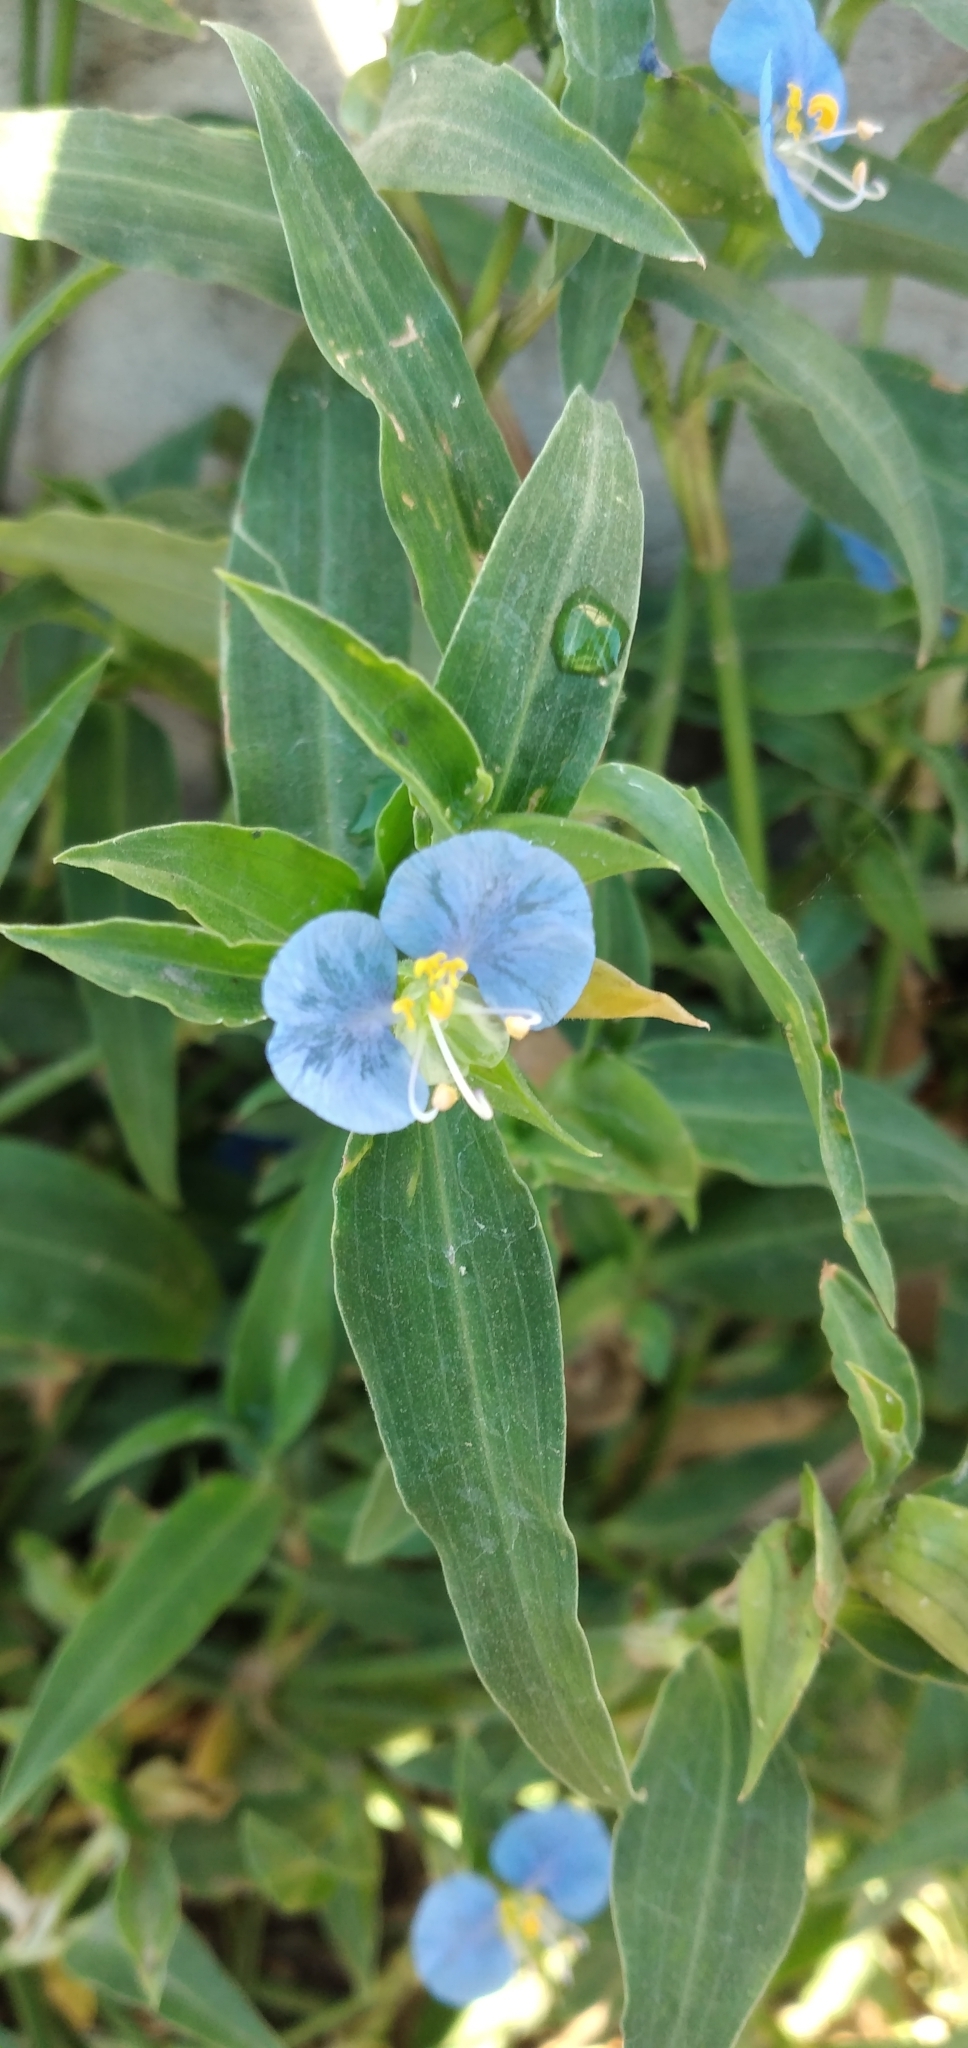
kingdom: Plantae
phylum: Tracheophyta
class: Liliopsida
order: Commelinales
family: Commelinaceae
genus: Commelina
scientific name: Commelina erecta
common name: Blousel blommetjie
